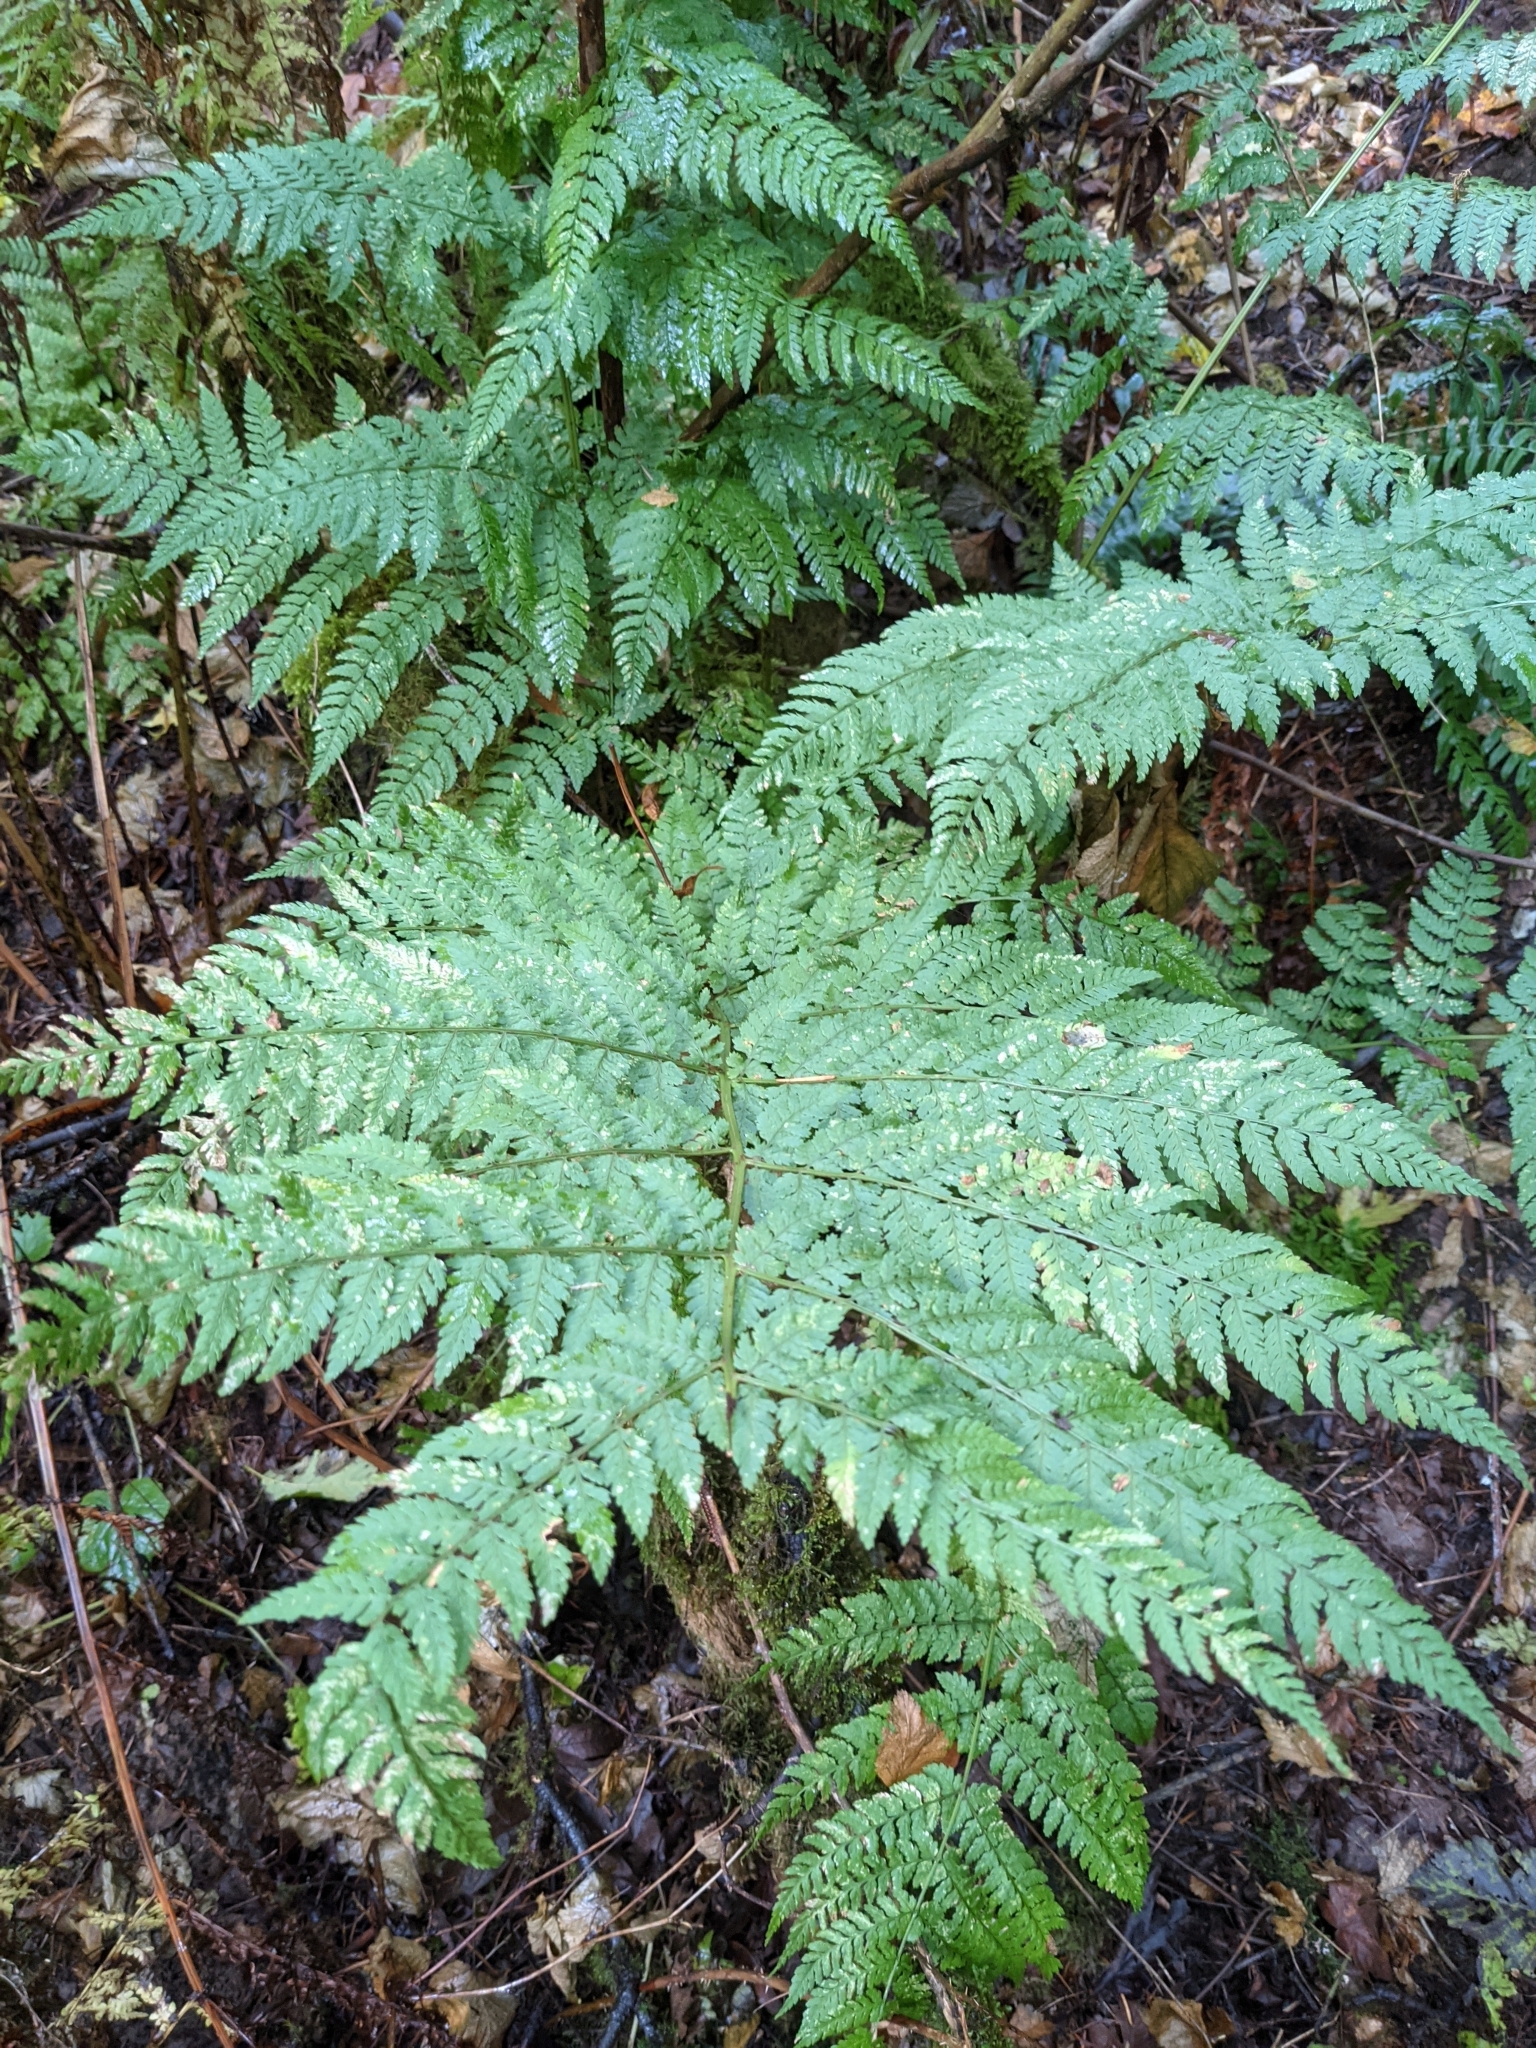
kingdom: Plantae
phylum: Tracheophyta
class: Polypodiopsida
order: Polypodiales
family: Dryopteridaceae
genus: Dryopteris
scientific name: Dryopteris expansa
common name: Northern buckler fern
